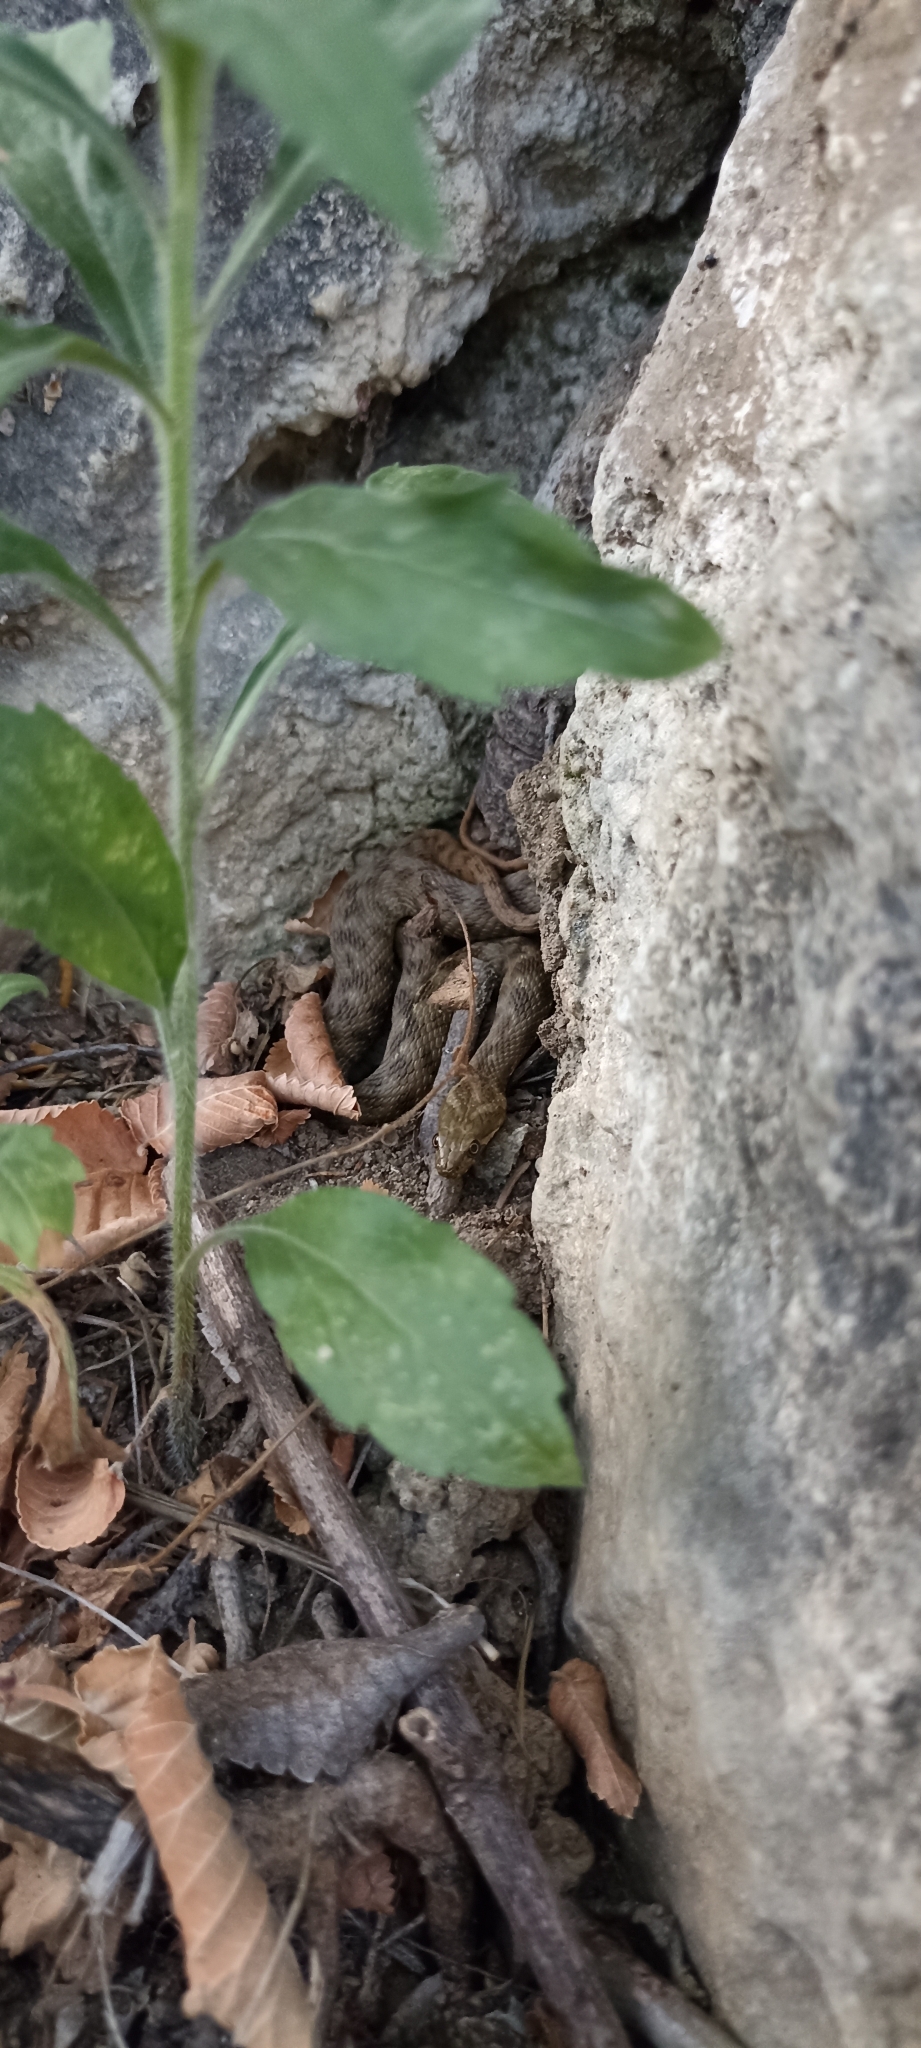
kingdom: Animalia
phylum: Chordata
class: Squamata
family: Colubridae
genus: Natrix
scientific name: Natrix maura
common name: Viperine water snake
